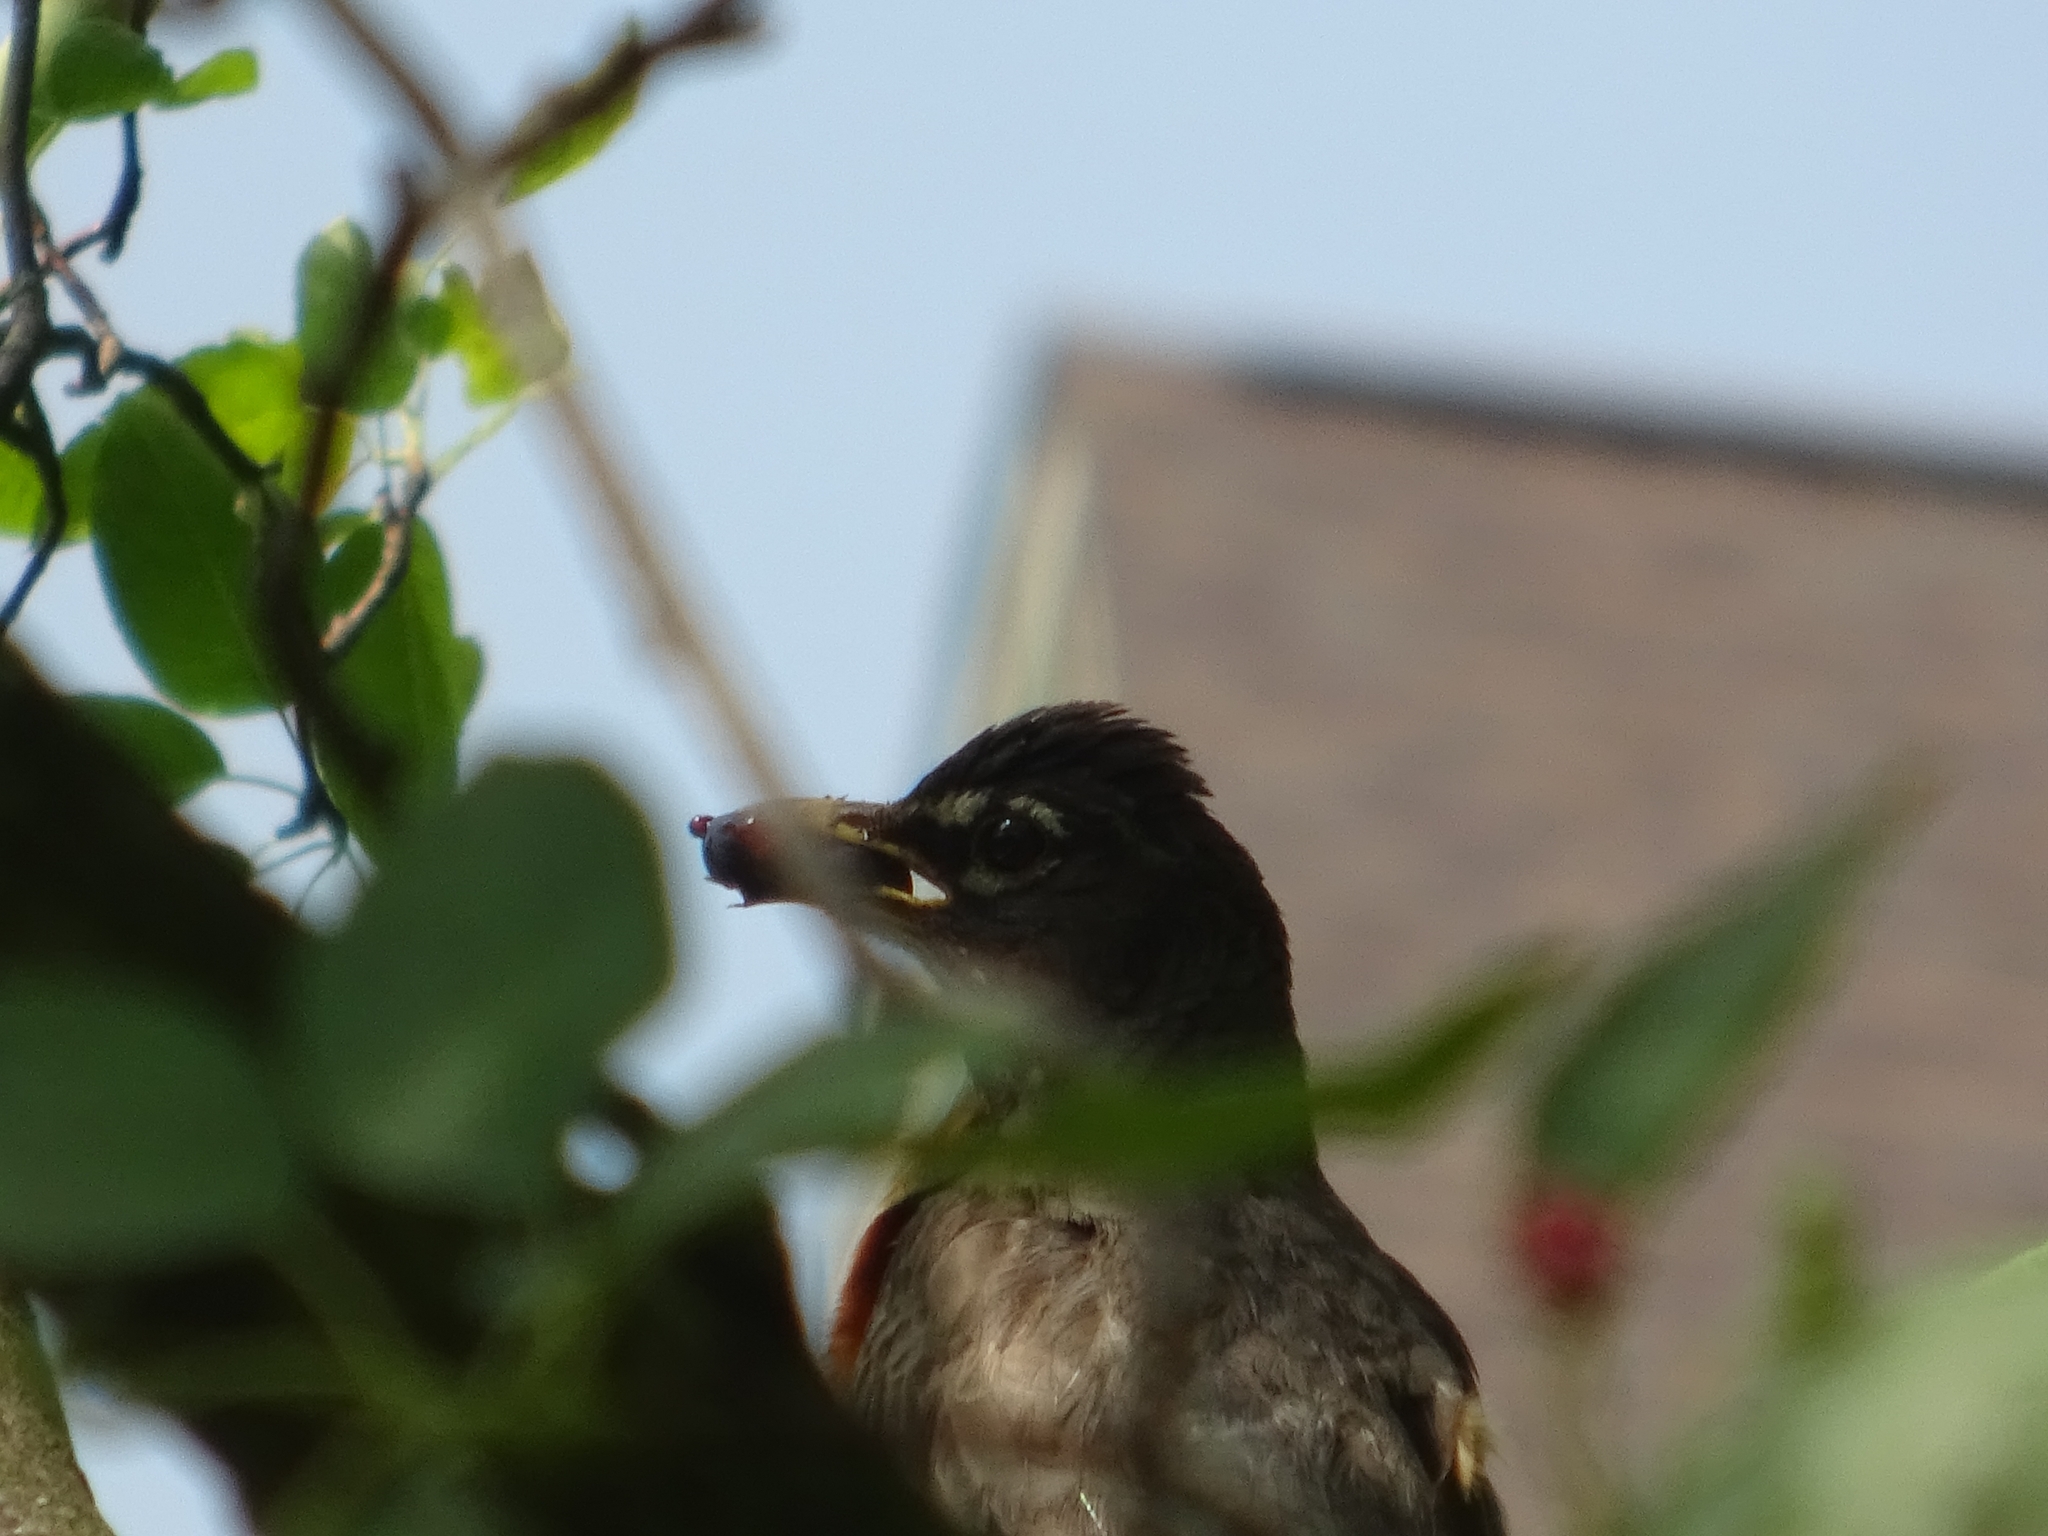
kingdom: Animalia
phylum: Chordata
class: Aves
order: Passeriformes
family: Turdidae
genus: Turdus
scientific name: Turdus migratorius
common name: American robin
